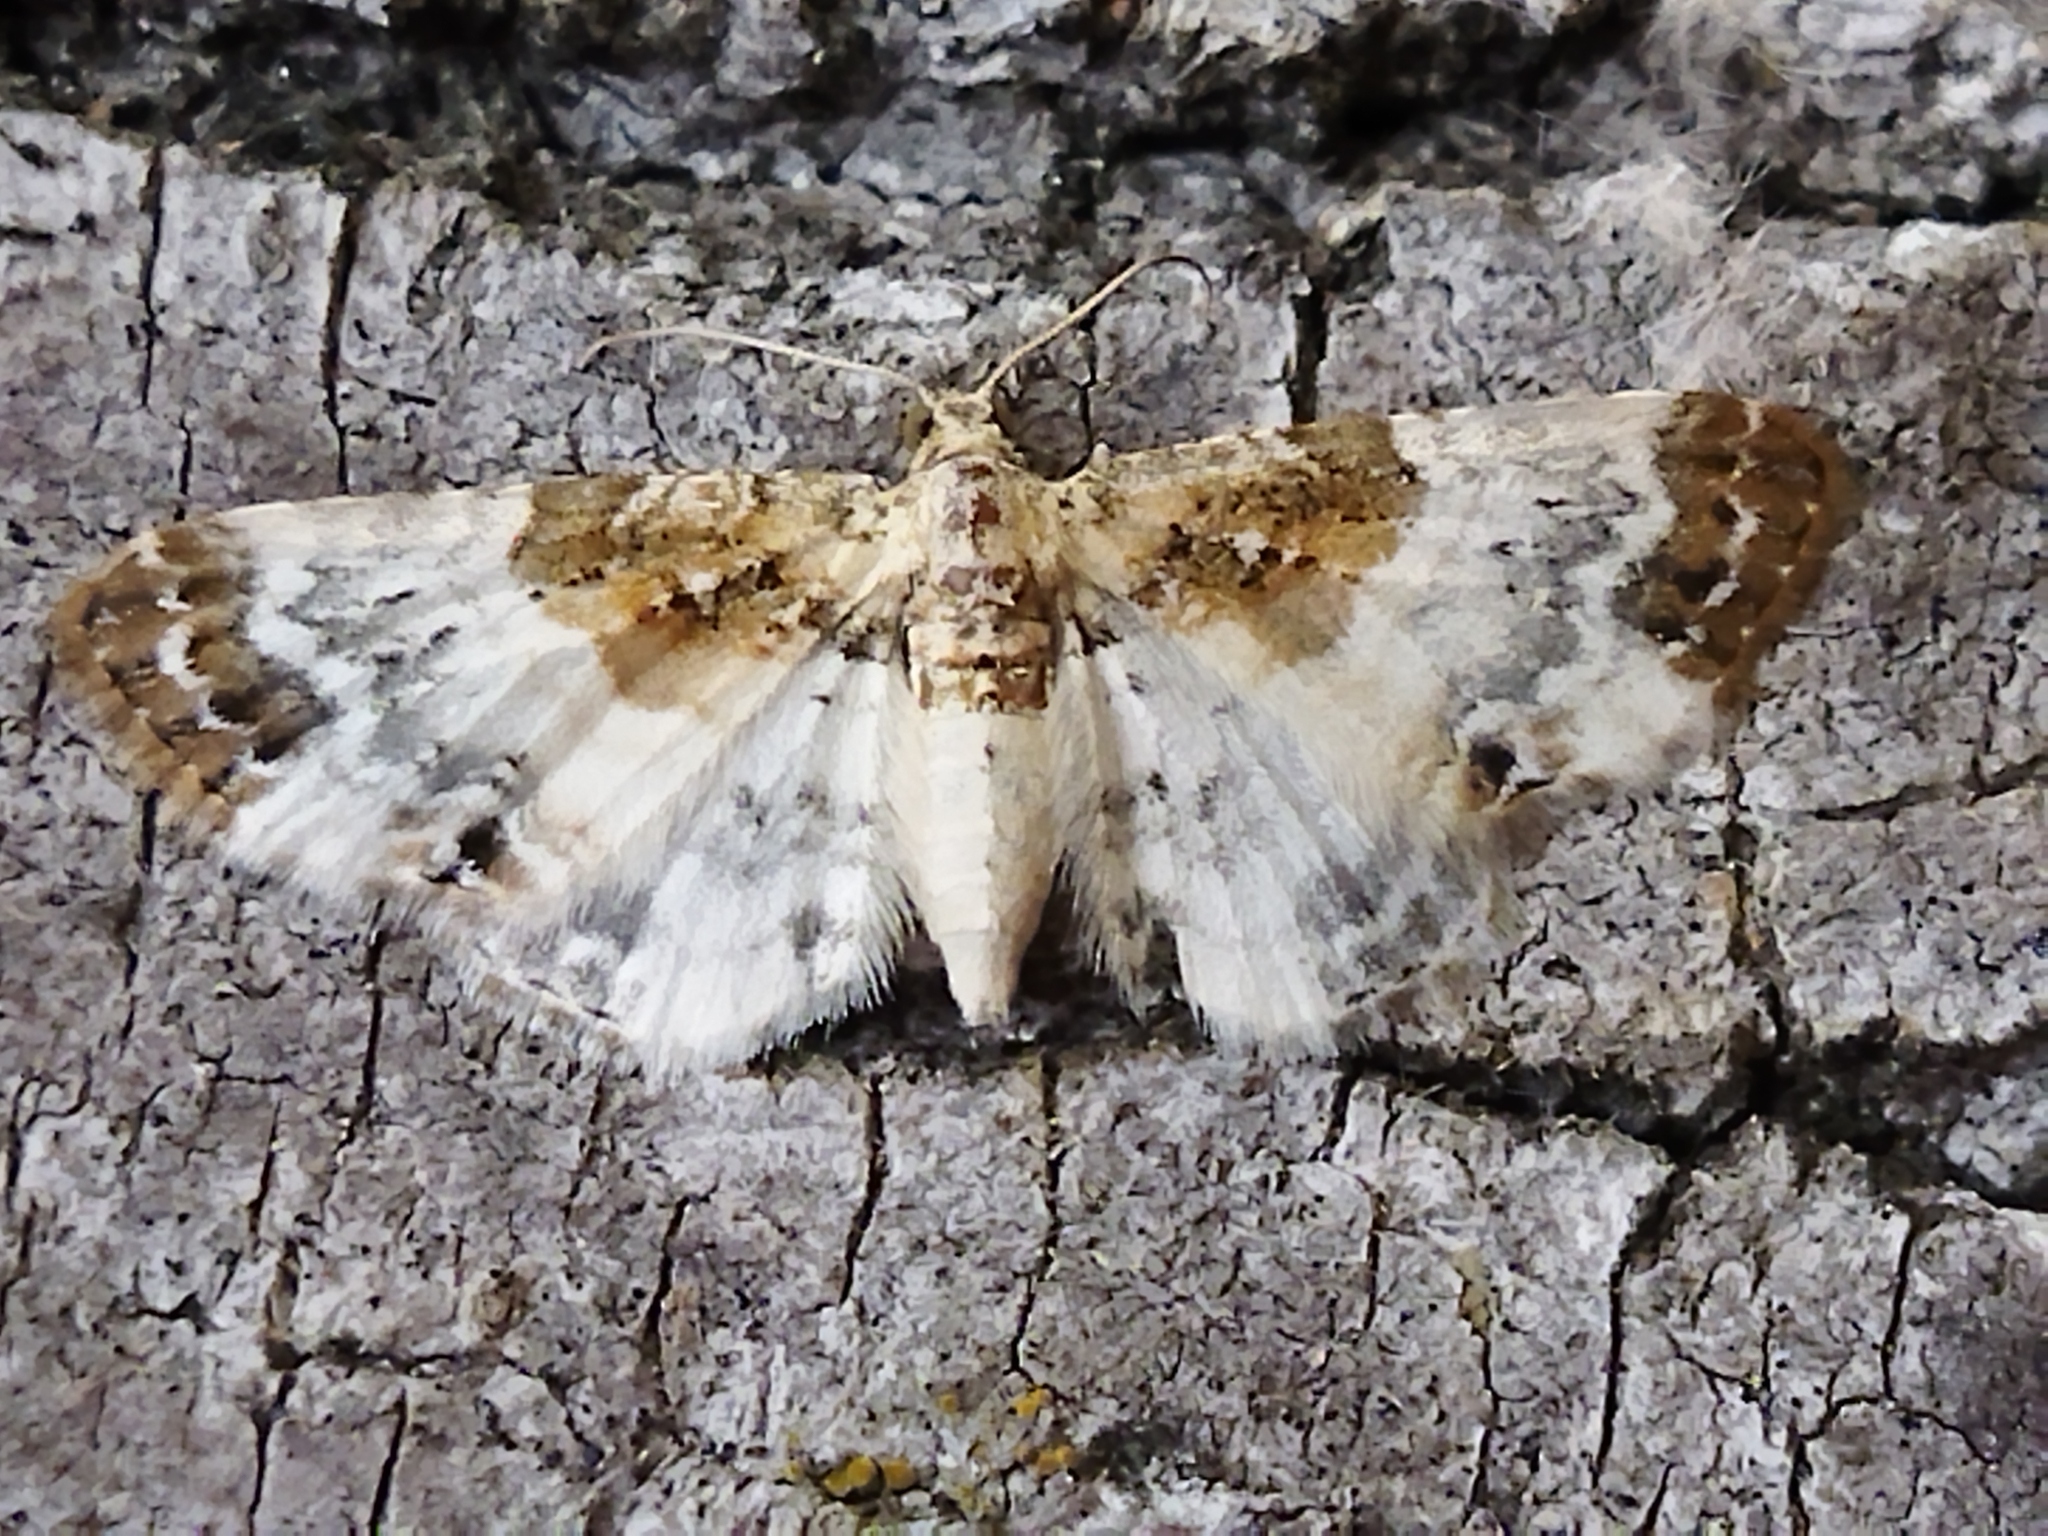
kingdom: Animalia
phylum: Arthropoda
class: Insecta
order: Lepidoptera
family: Geometridae
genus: Eupithecia
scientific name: Eupithecia breviculata
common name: Rusty-shouldered pug
